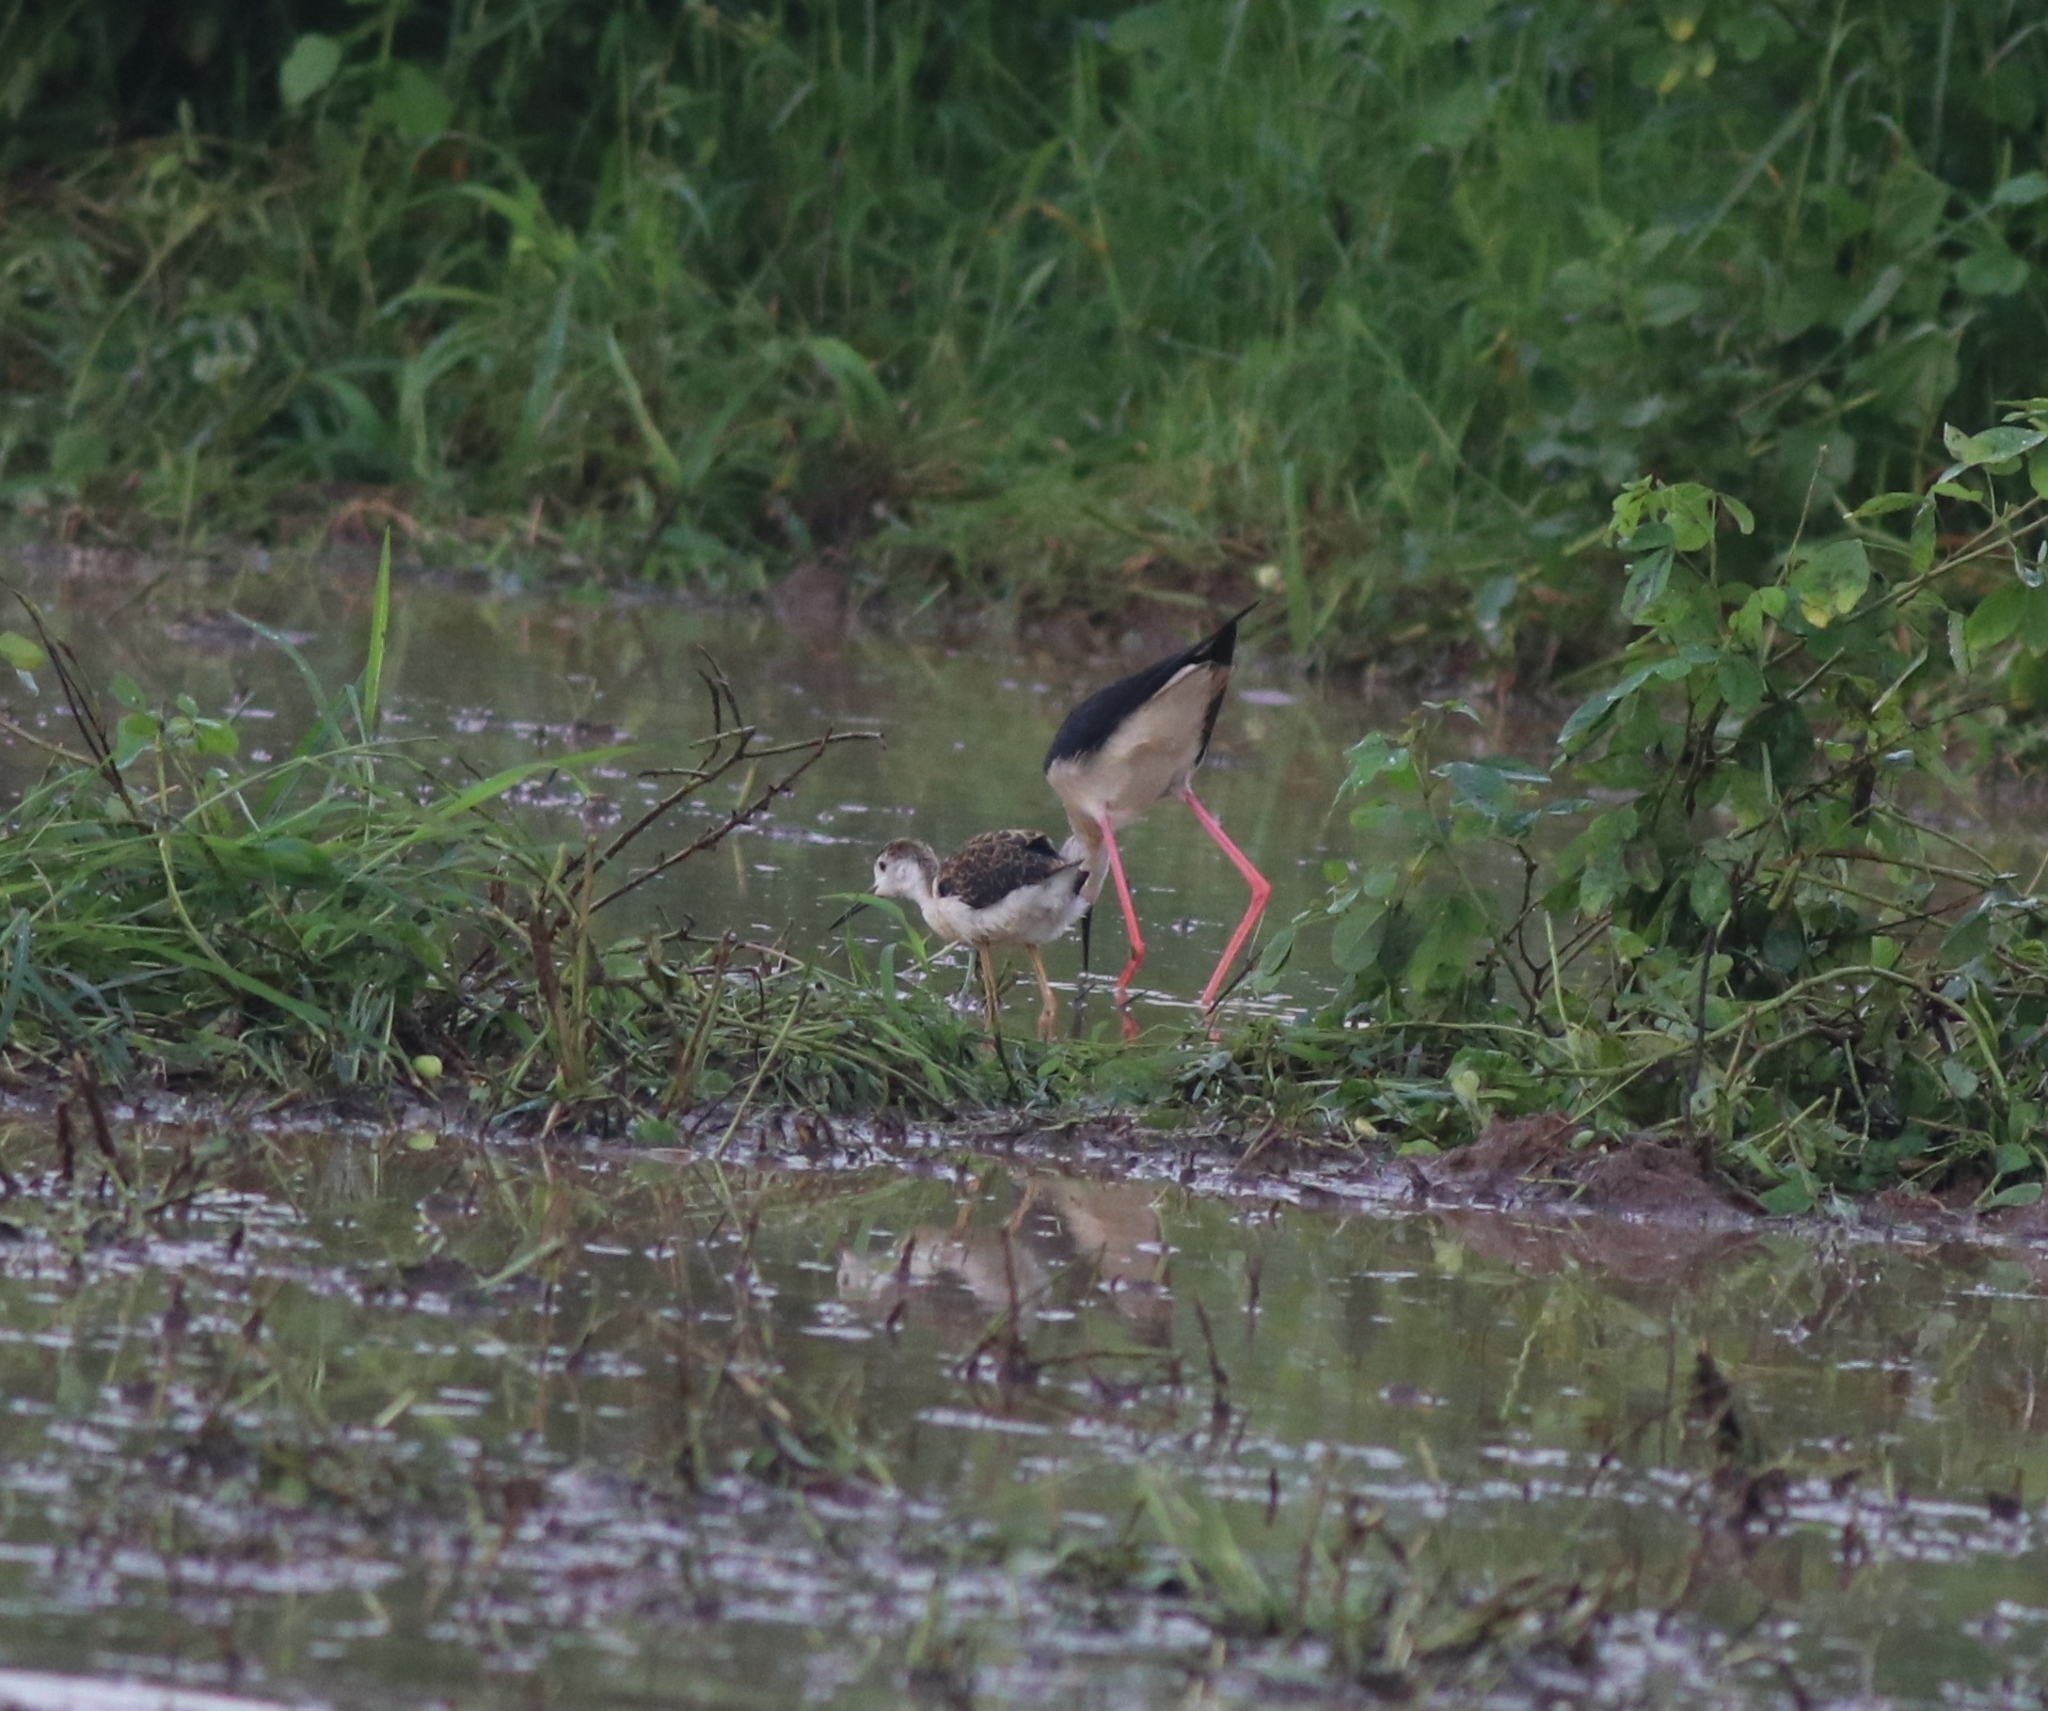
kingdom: Animalia
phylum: Chordata
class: Aves
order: Charadriiformes
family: Recurvirostridae
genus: Himantopus
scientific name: Himantopus himantopus
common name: Black-winged stilt
